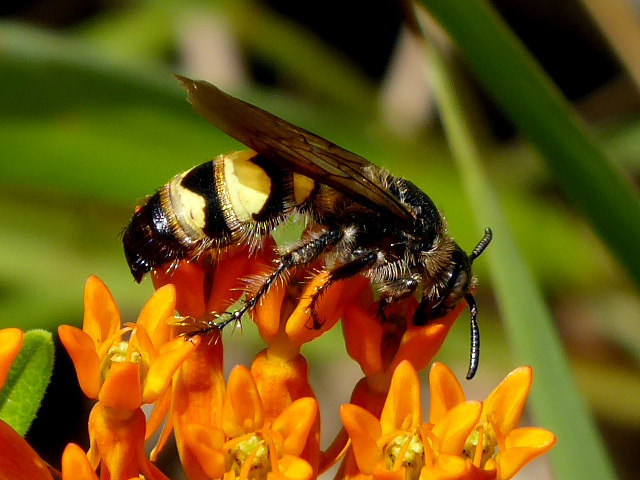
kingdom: Animalia
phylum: Arthropoda
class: Insecta
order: Hymenoptera
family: Scoliidae
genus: Dielis
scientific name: Dielis
